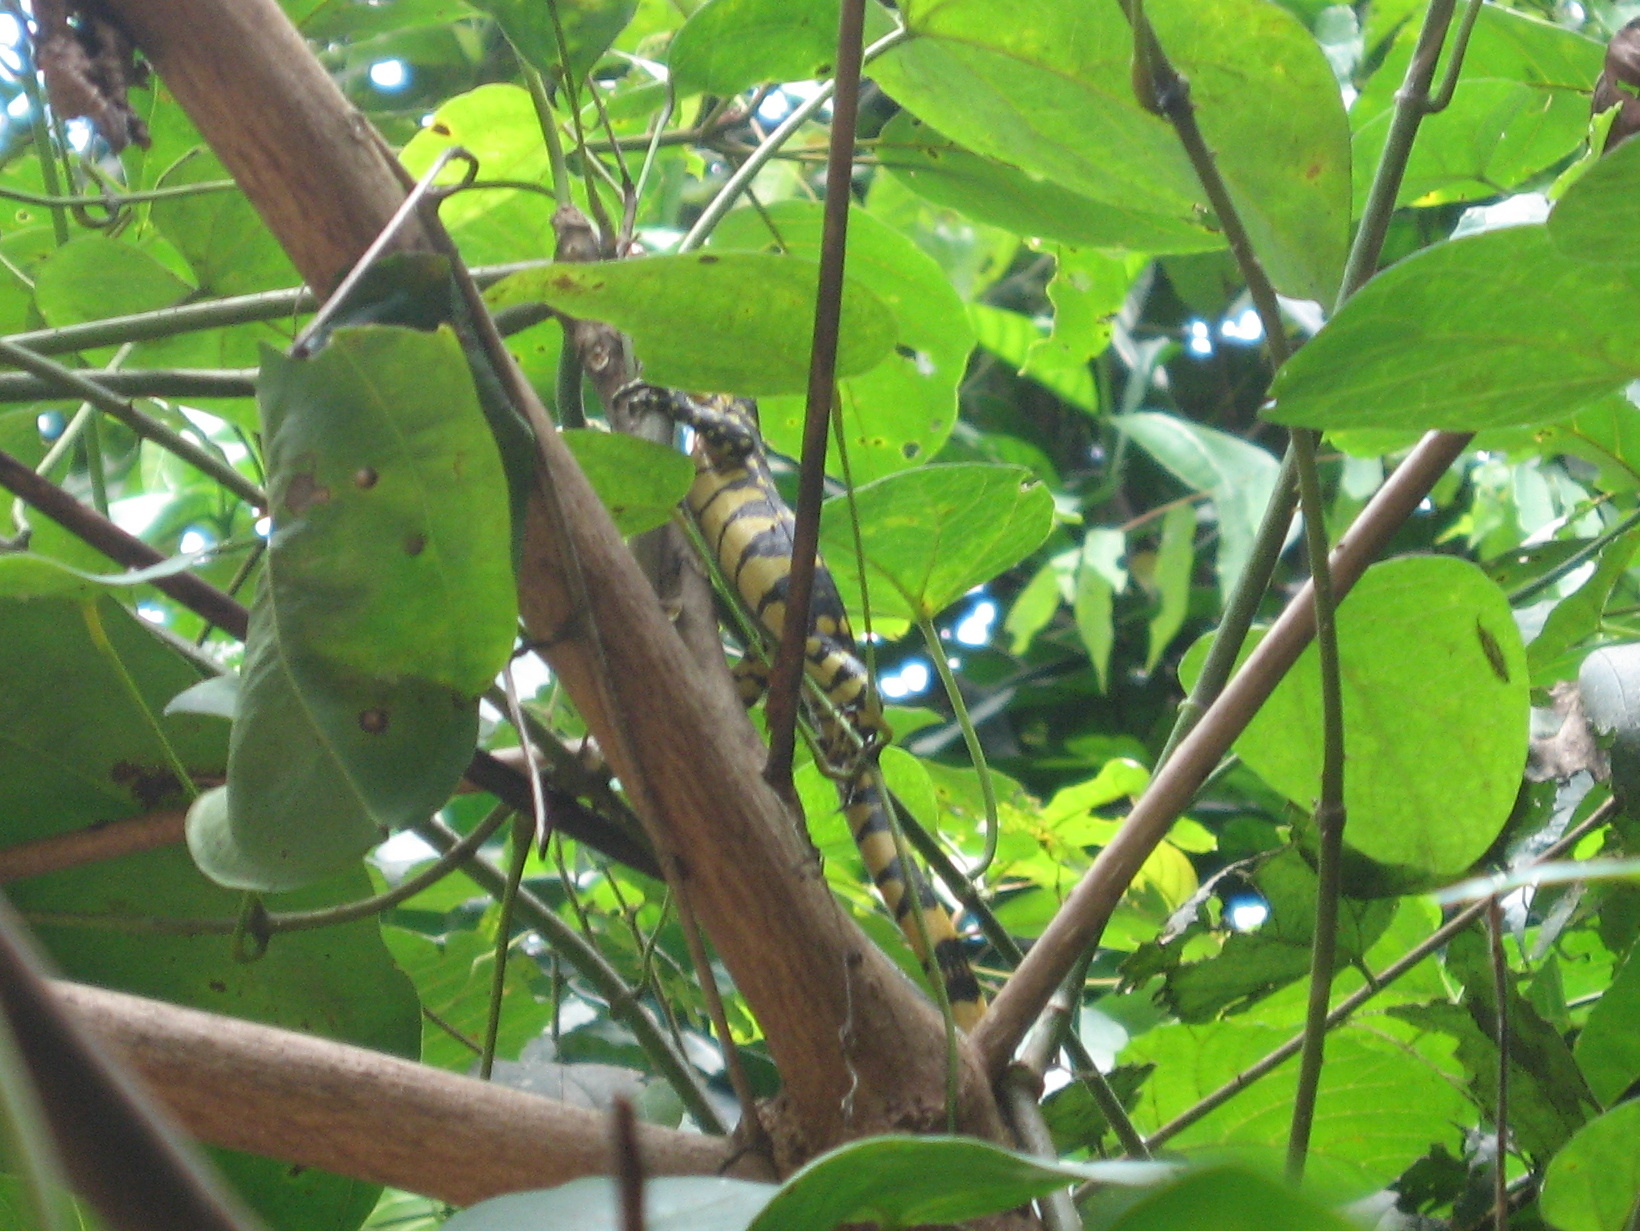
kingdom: Animalia
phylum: Chordata
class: Squamata
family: Varanidae
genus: Varanus
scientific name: Varanus niloticus
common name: Nile monitor
